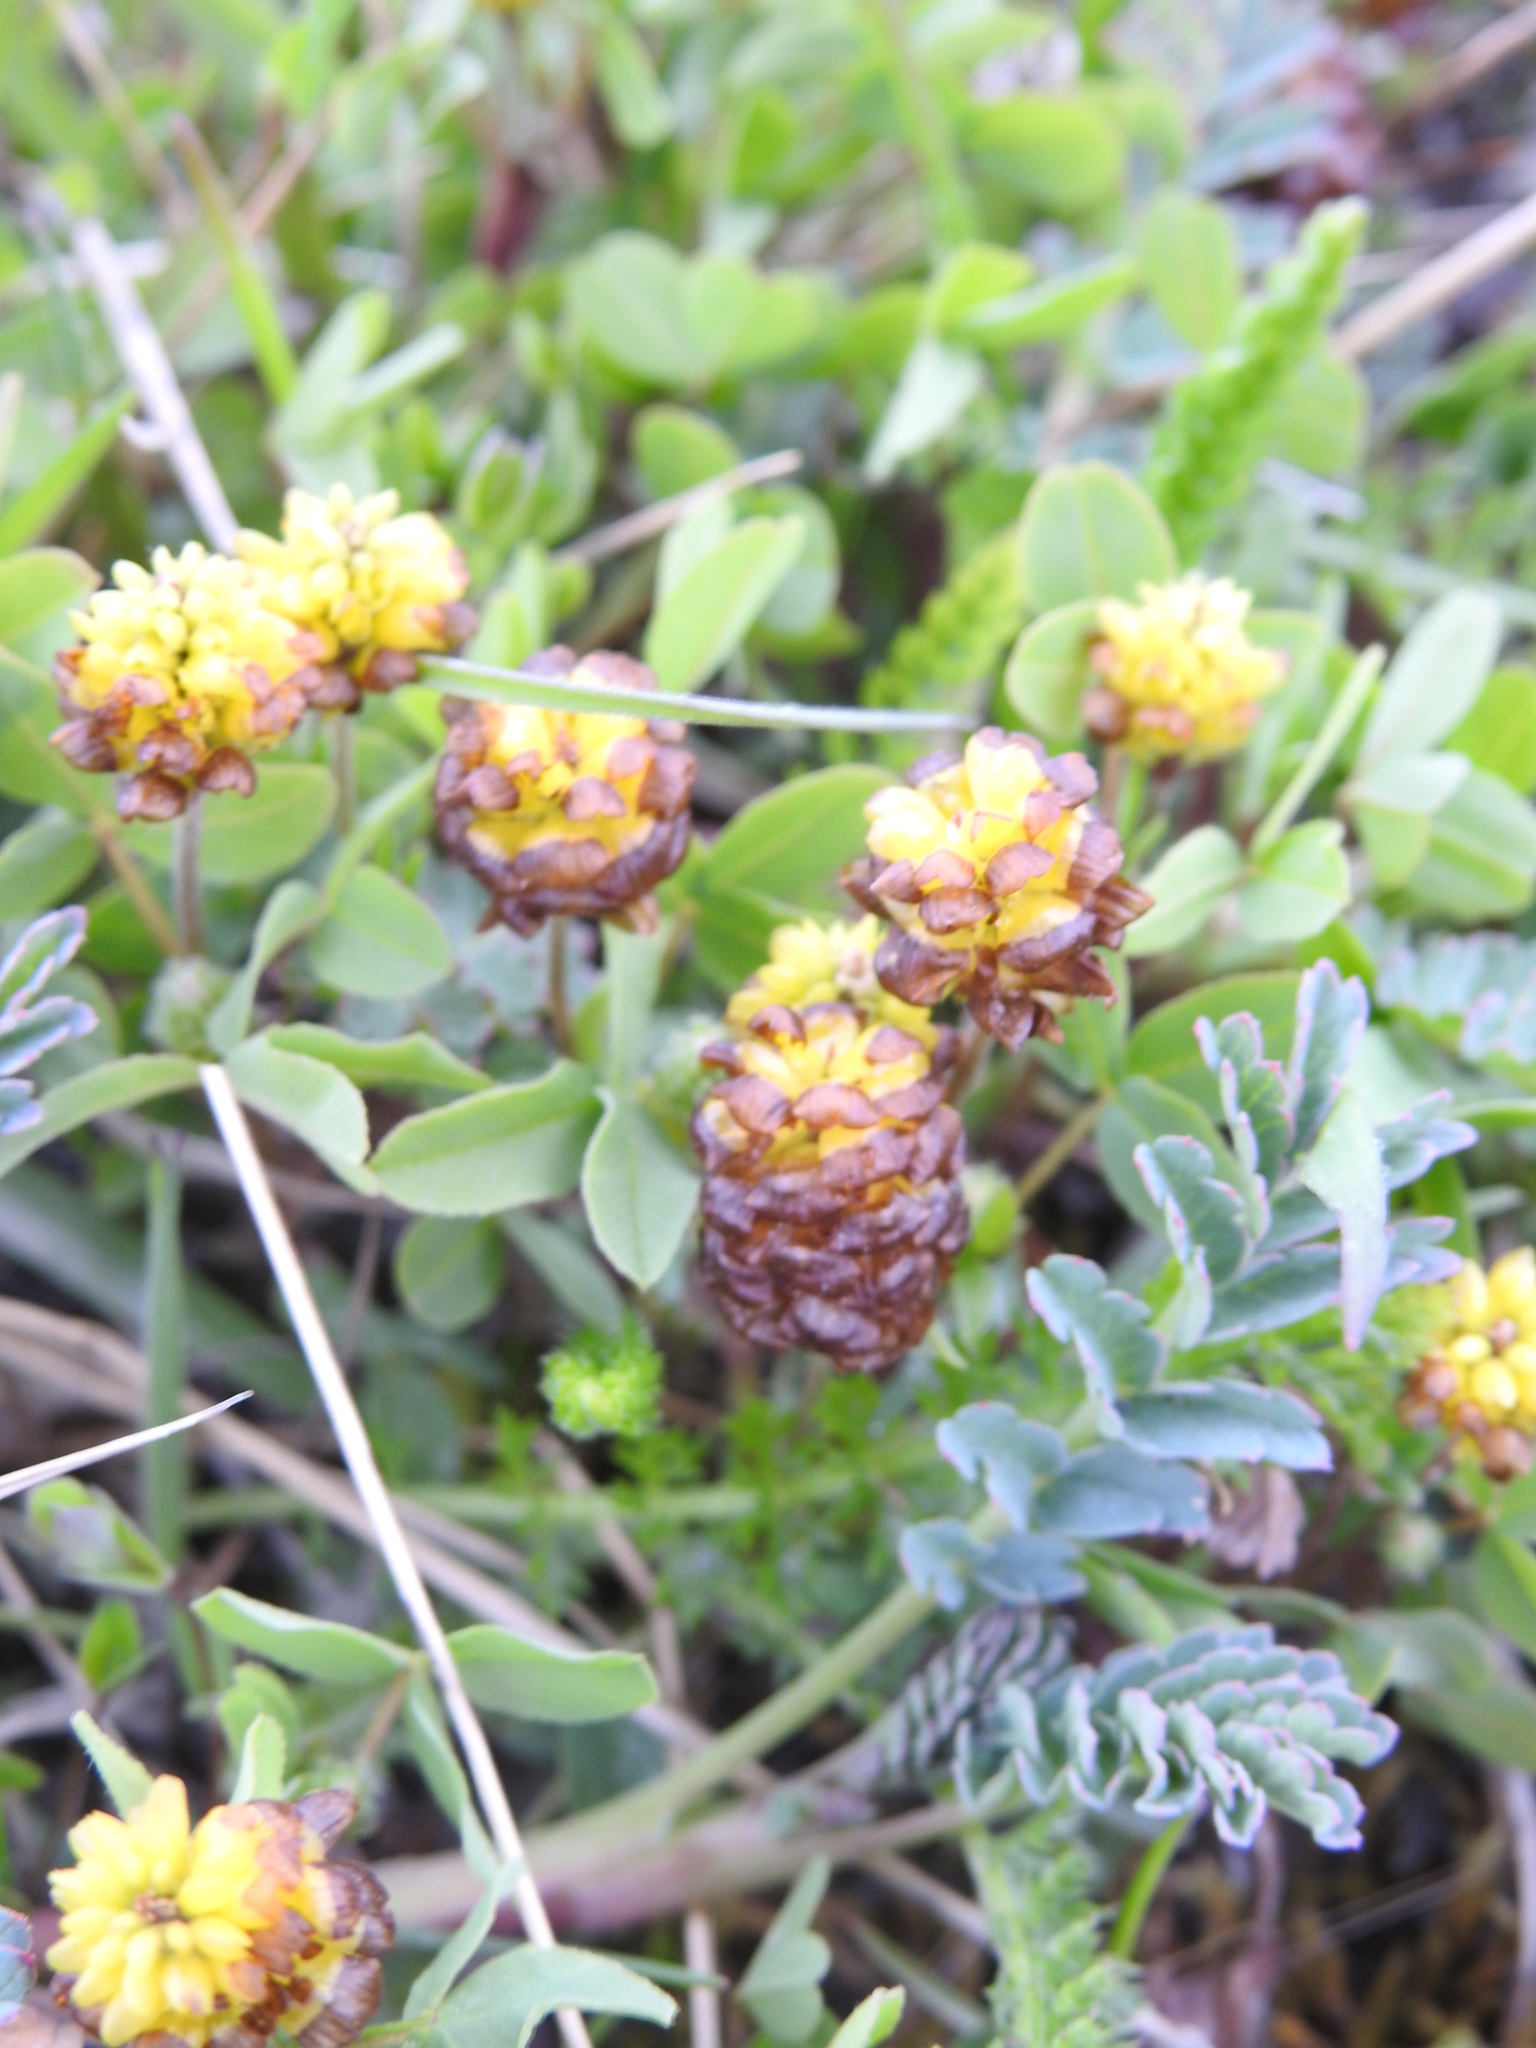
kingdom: Plantae
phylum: Tracheophyta
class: Magnoliopsida
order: Fabales
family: Fabaceae
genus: Trifolium
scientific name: Trifolium spadiceum
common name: Brown moor clover
